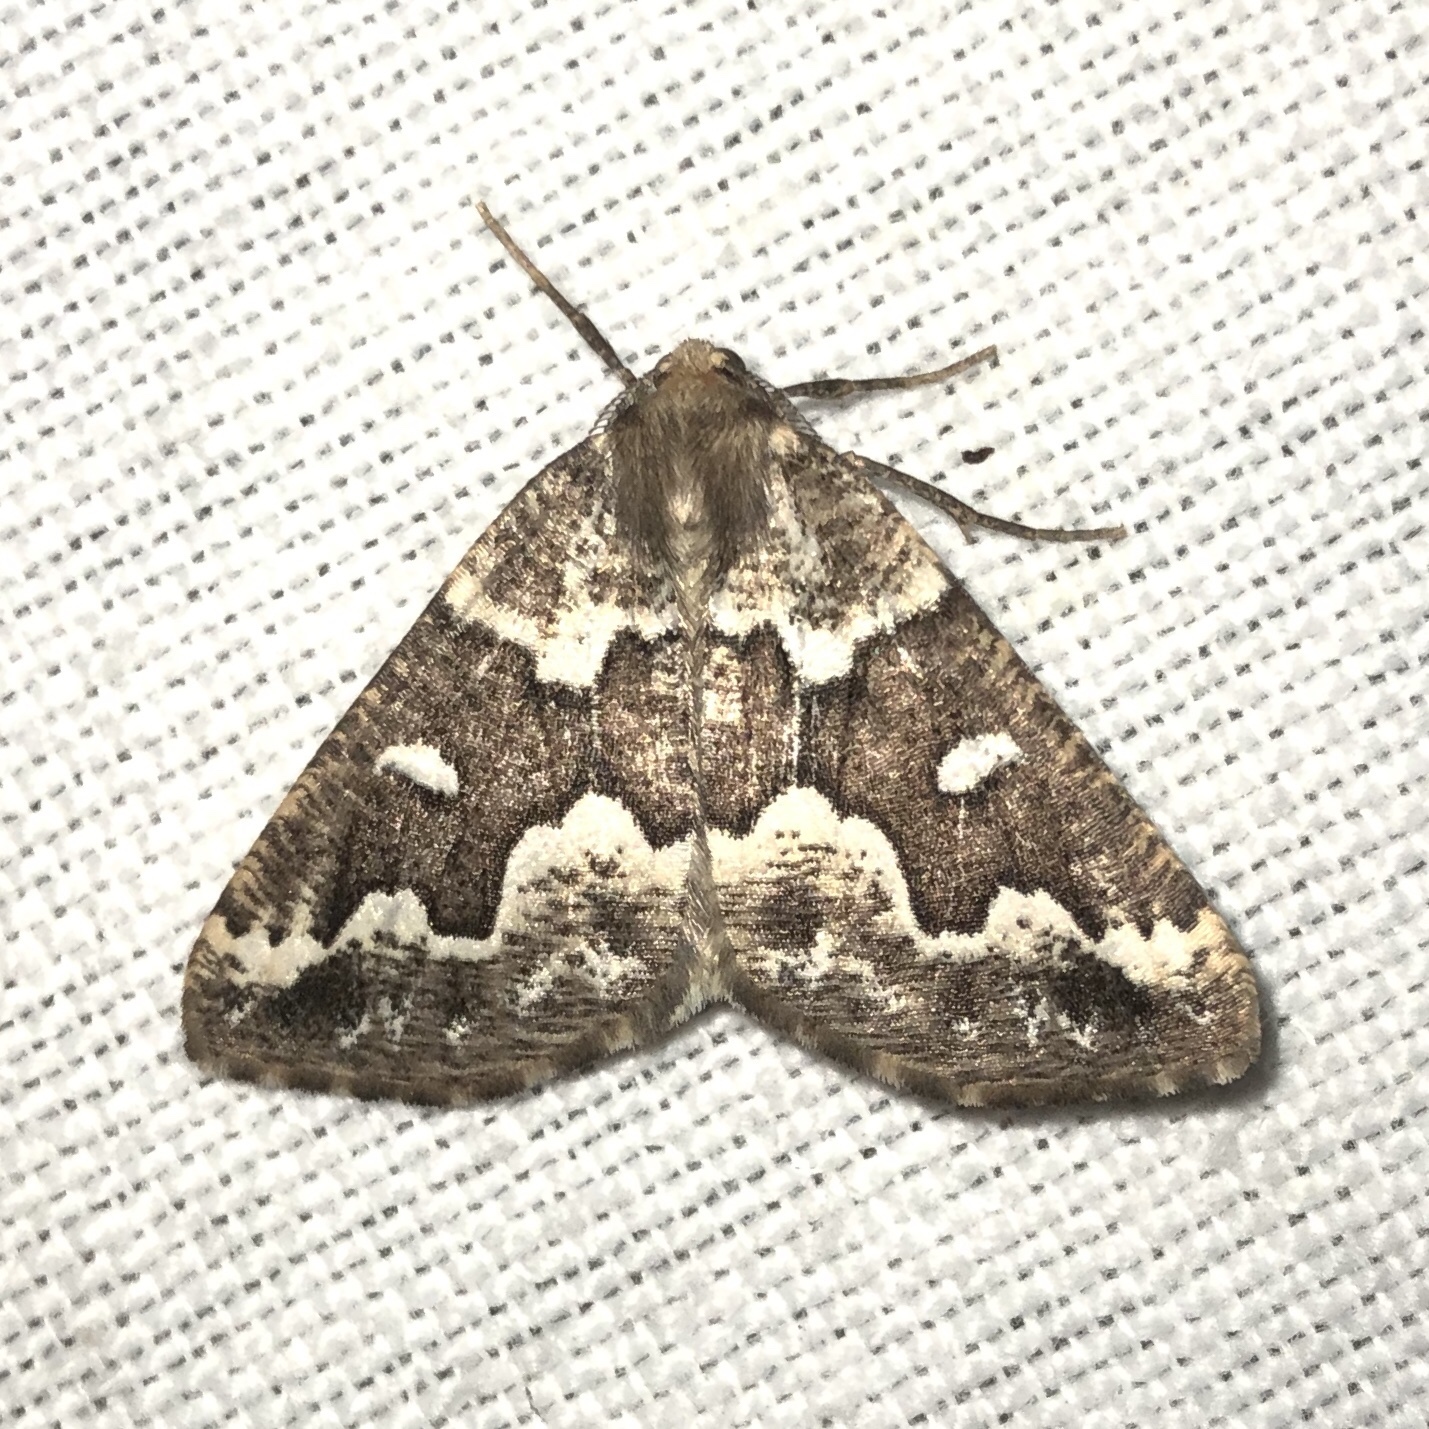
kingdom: Animalia
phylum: Arthropoda
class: Insecta
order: Lepidoptera
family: Geometridae
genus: Caripeta
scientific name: Caripeta divisata
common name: Gray spruce looper
